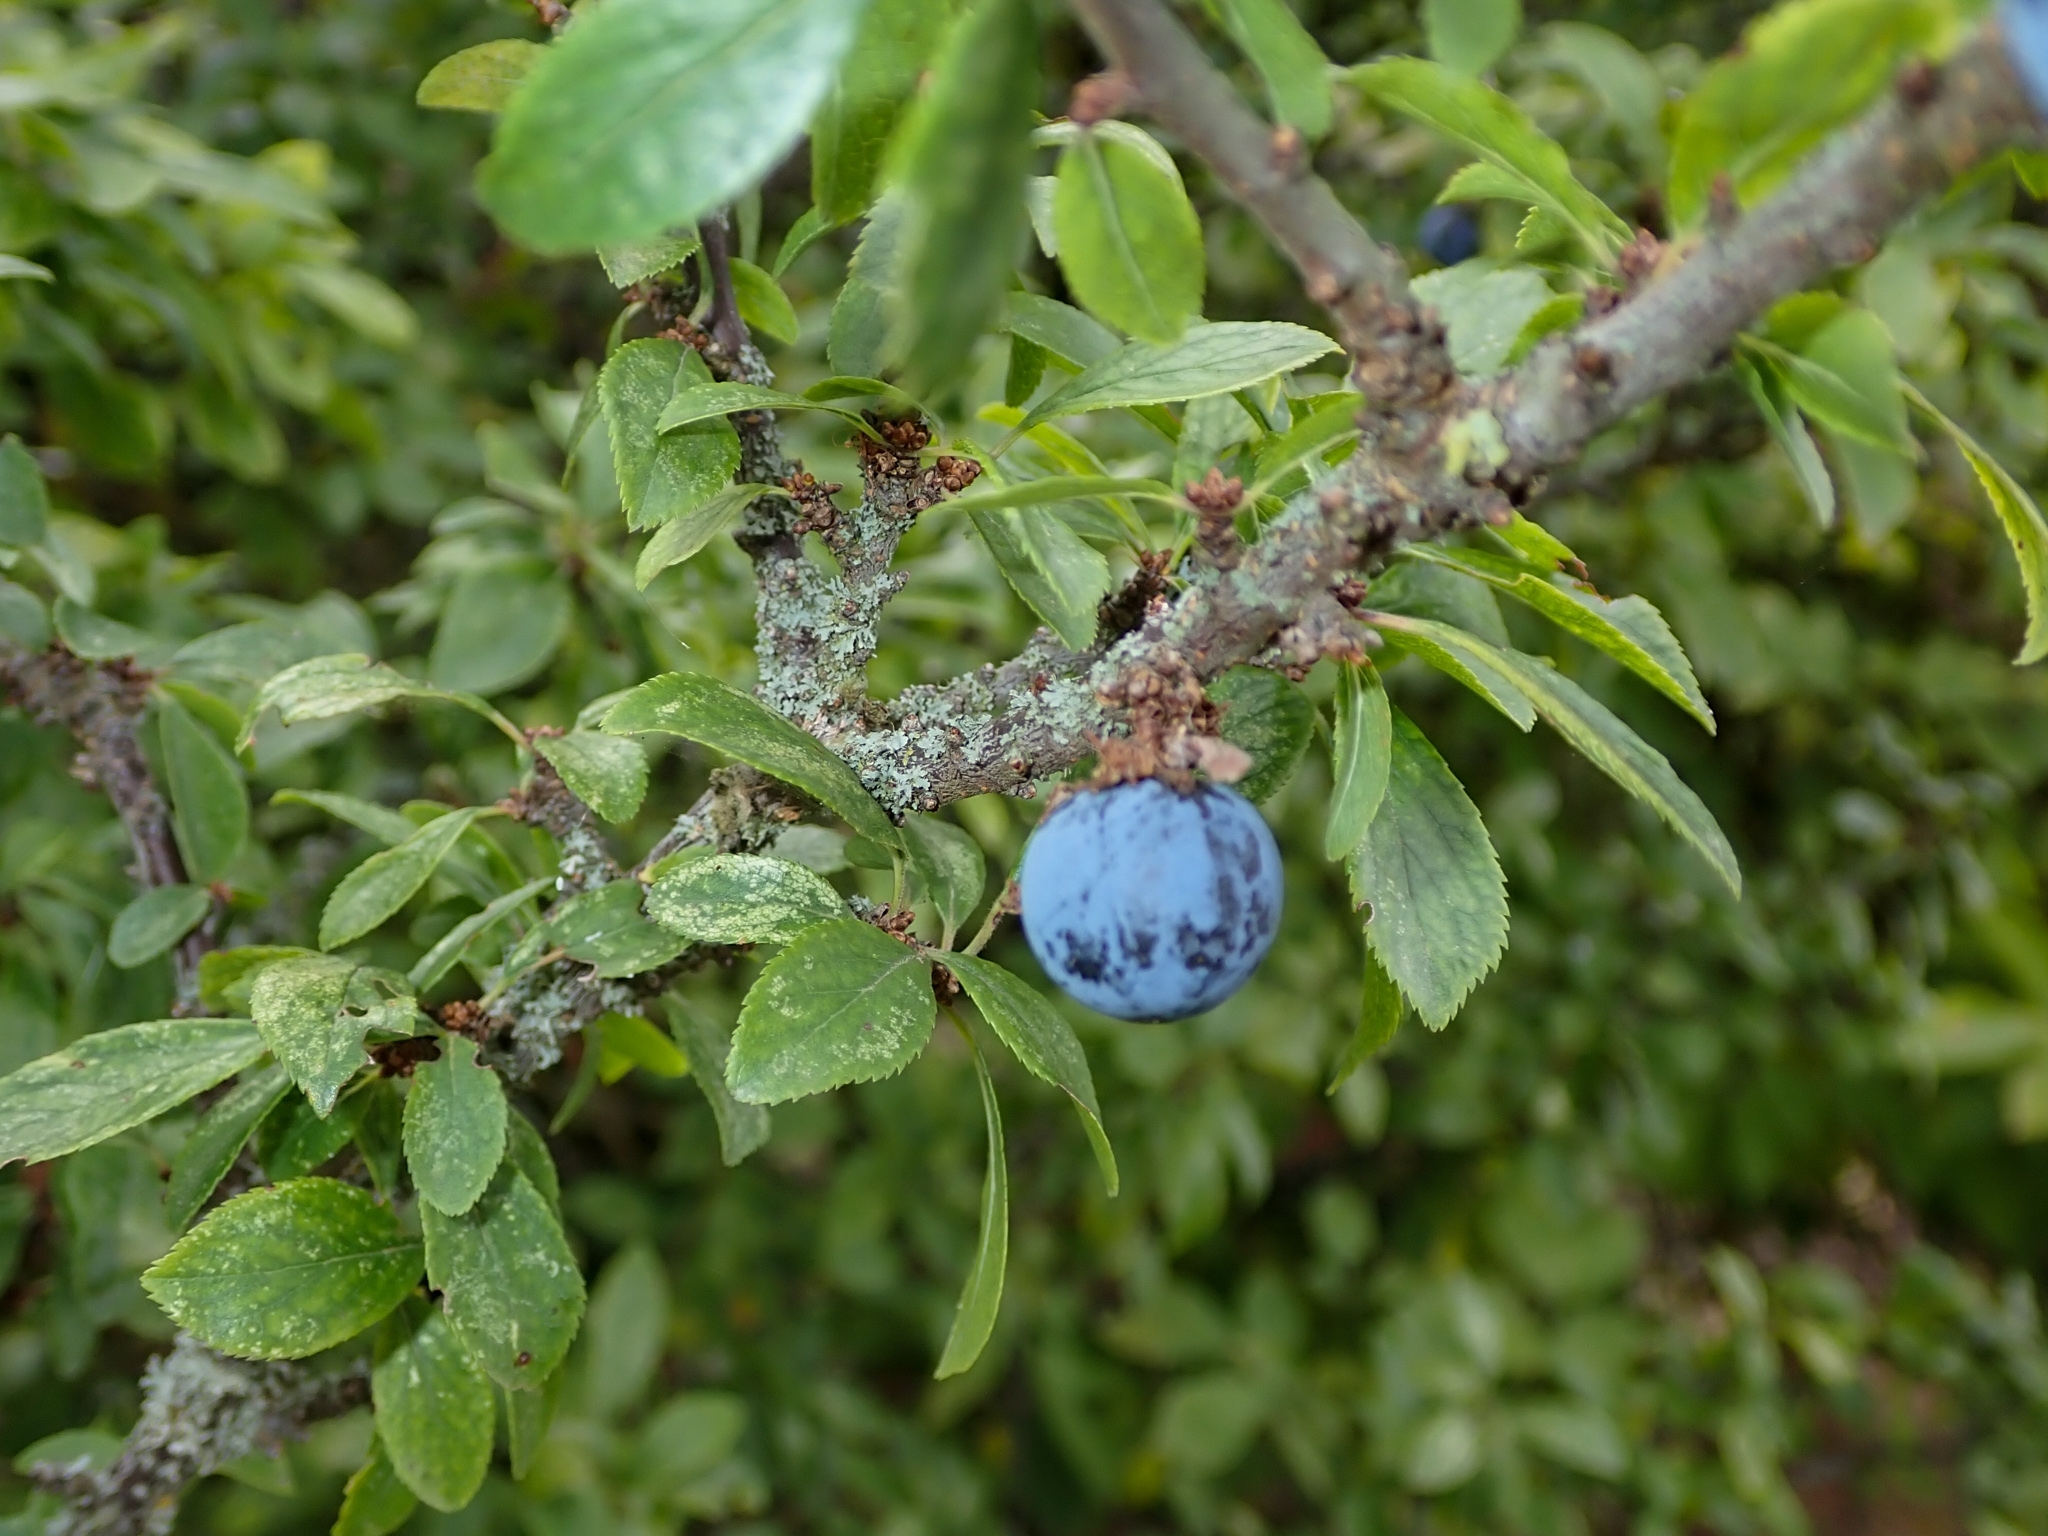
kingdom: Plantae
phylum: Tracheophyta
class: Magnoliopsida
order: Rosales
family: Rosaceae
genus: Prunus
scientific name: Prunus spinosa
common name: Blackthorn
